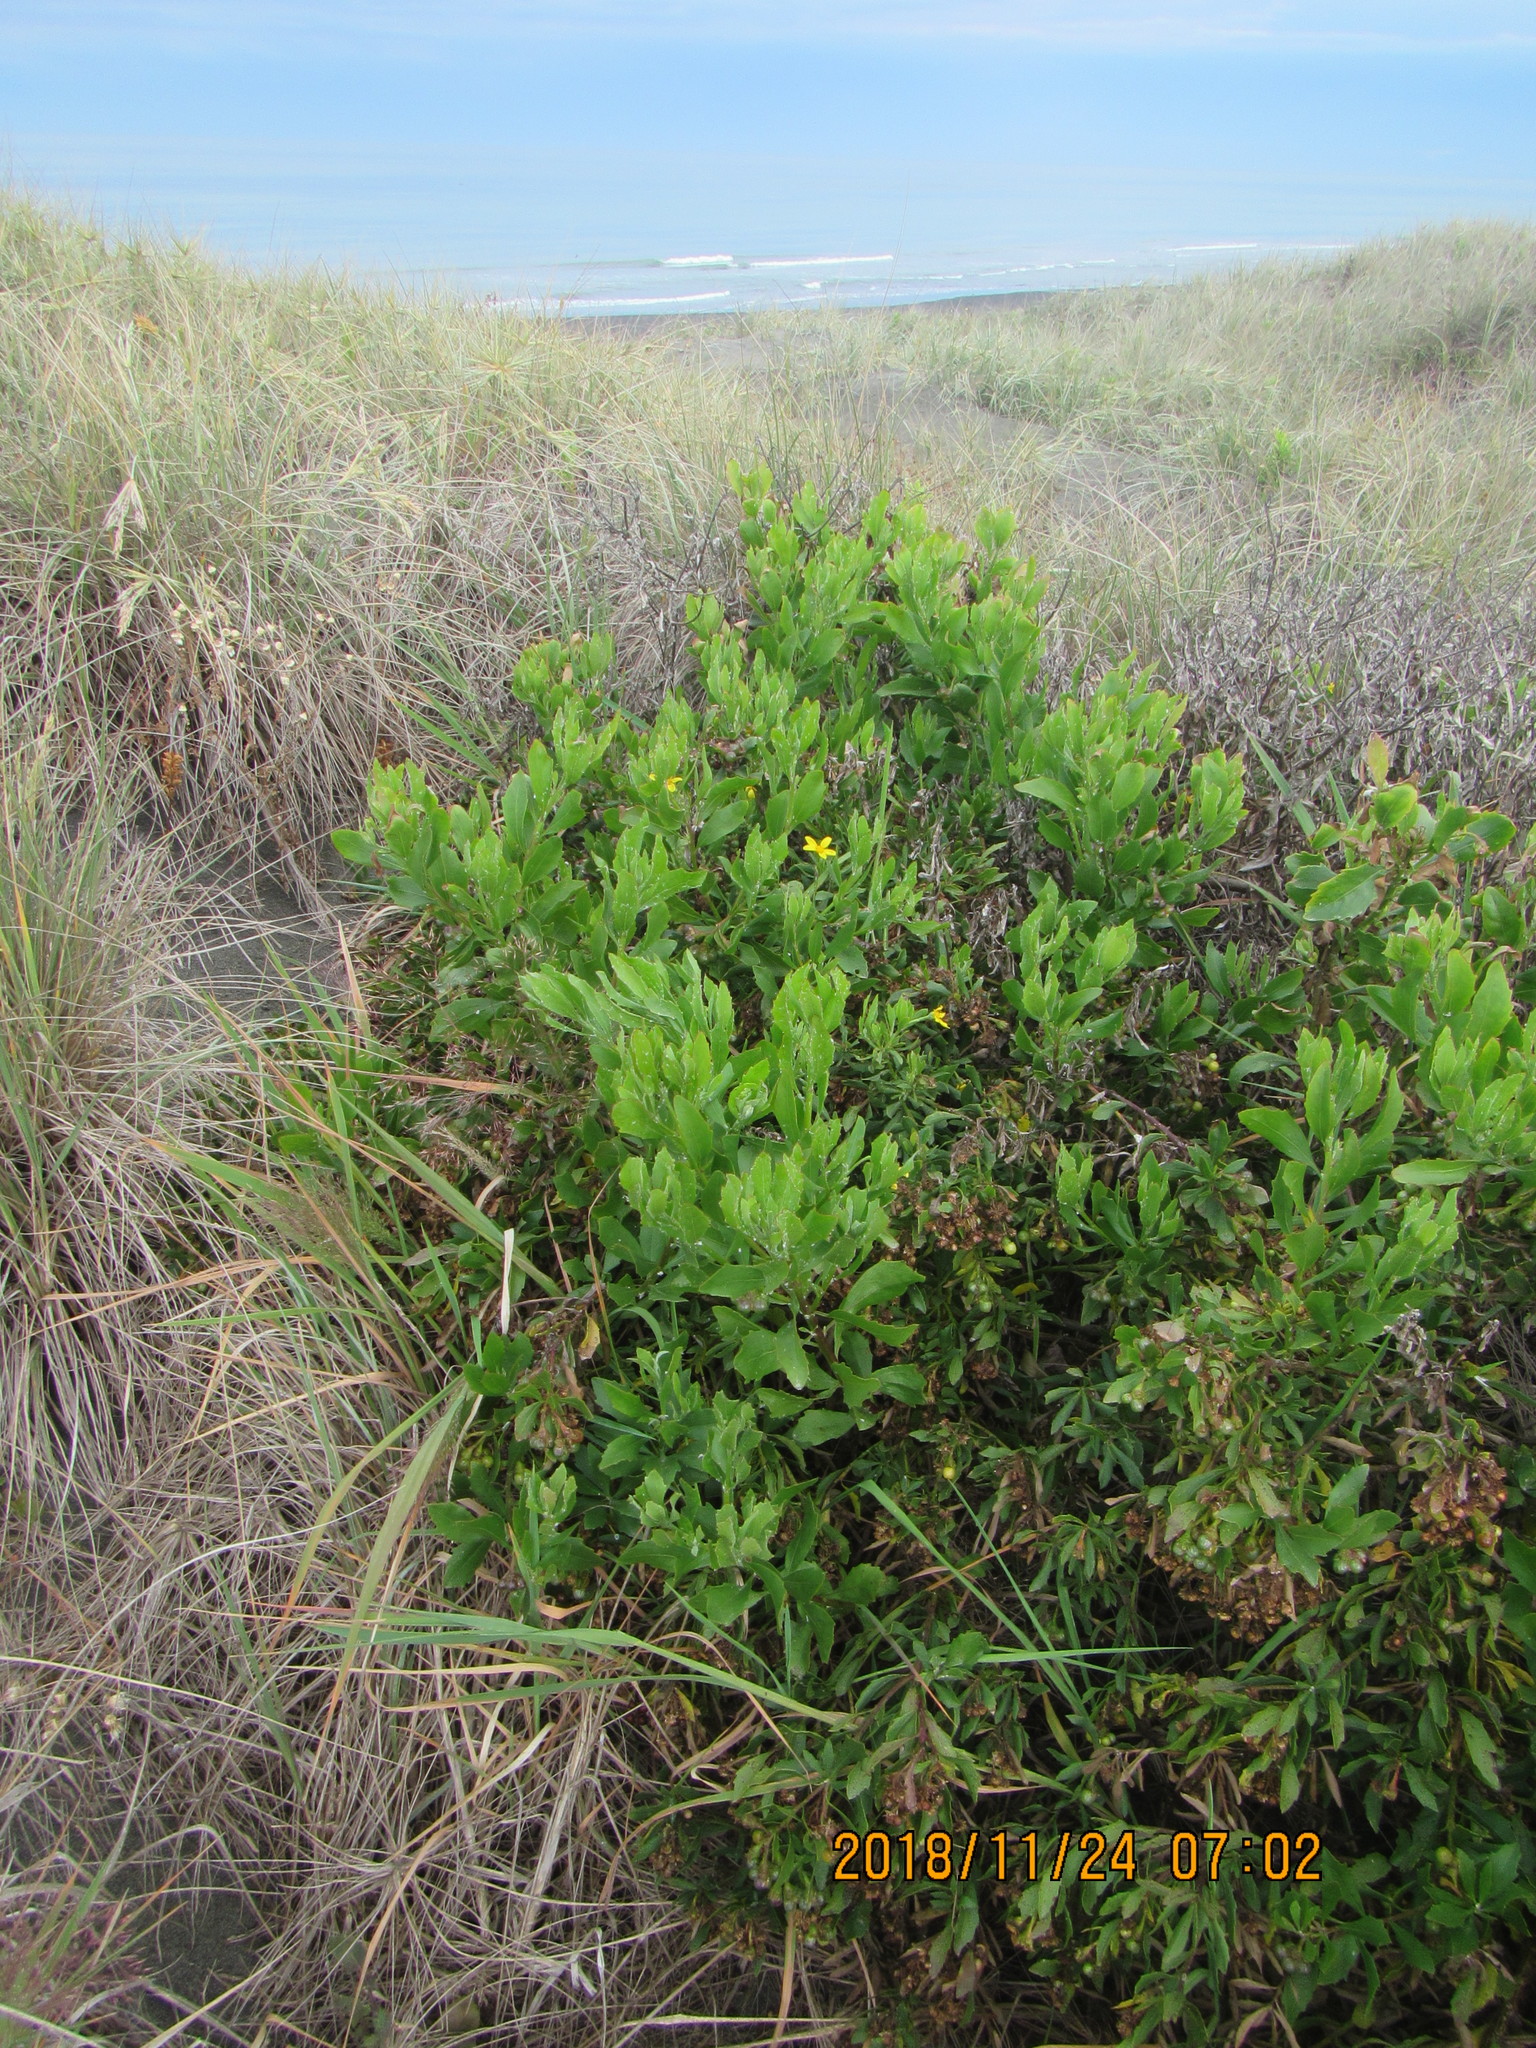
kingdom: Plantae
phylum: Tracheophyta
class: Magnoliopsida
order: Asterales
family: Asteraceae
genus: Osteospermum
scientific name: Osteospermum moniliferum
